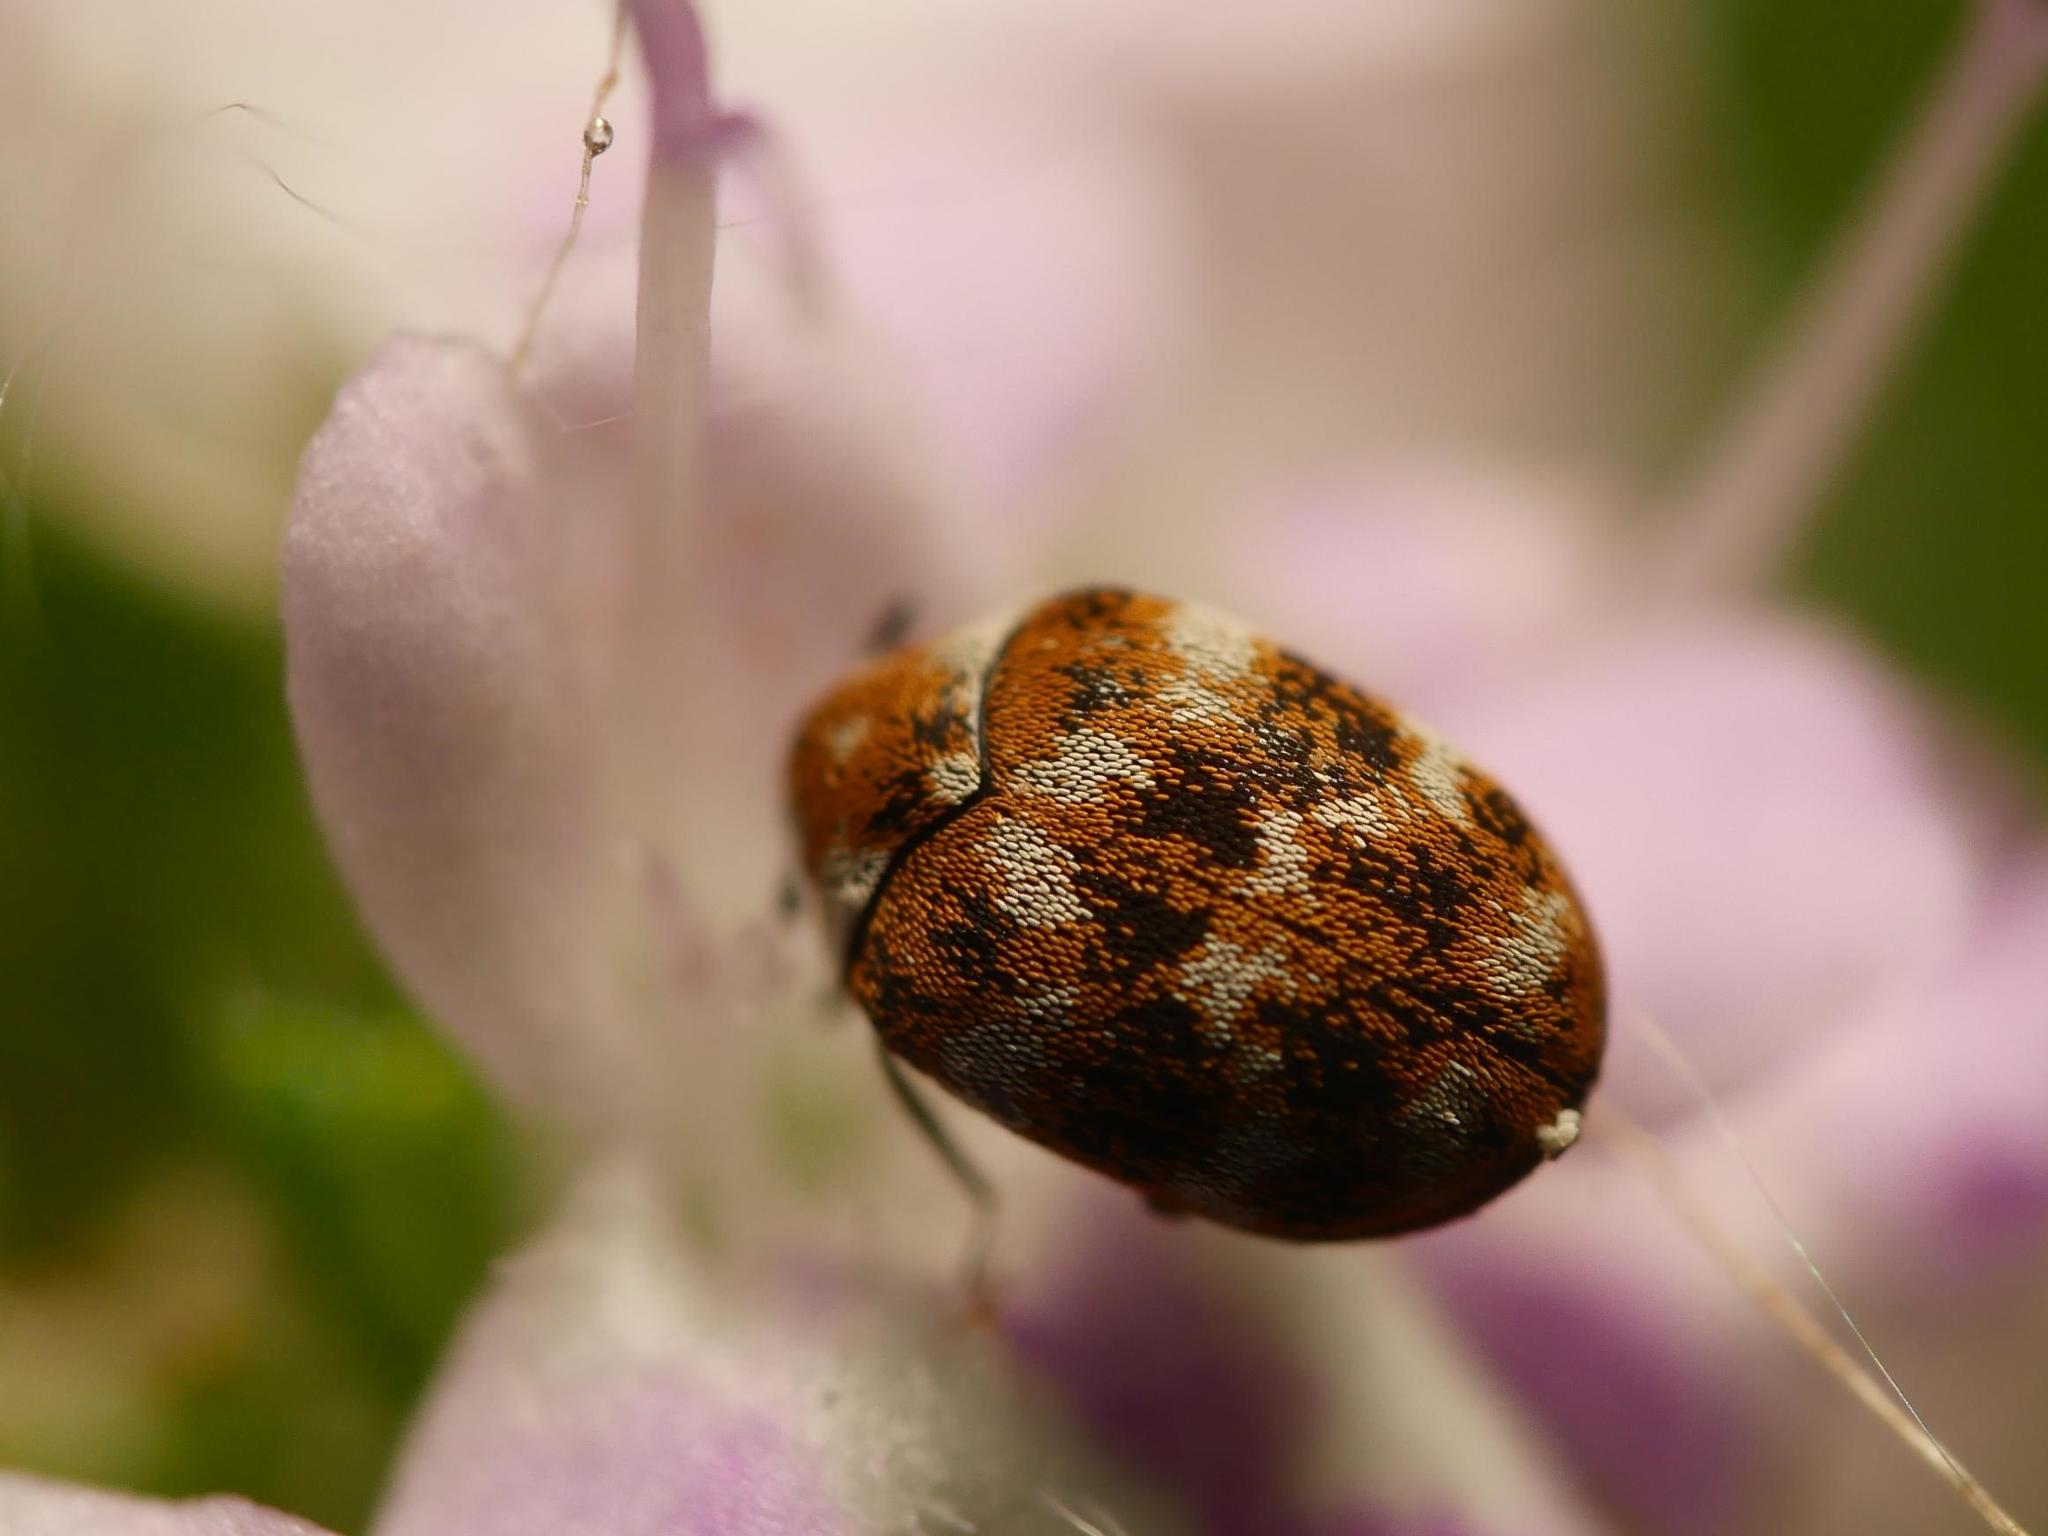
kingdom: Animalia
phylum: Arthropoda
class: Insecta
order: Coleoptera
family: Dermestidae
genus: Anthrenus
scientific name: Anthrenus verbasci
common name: Varied carpet beetle
